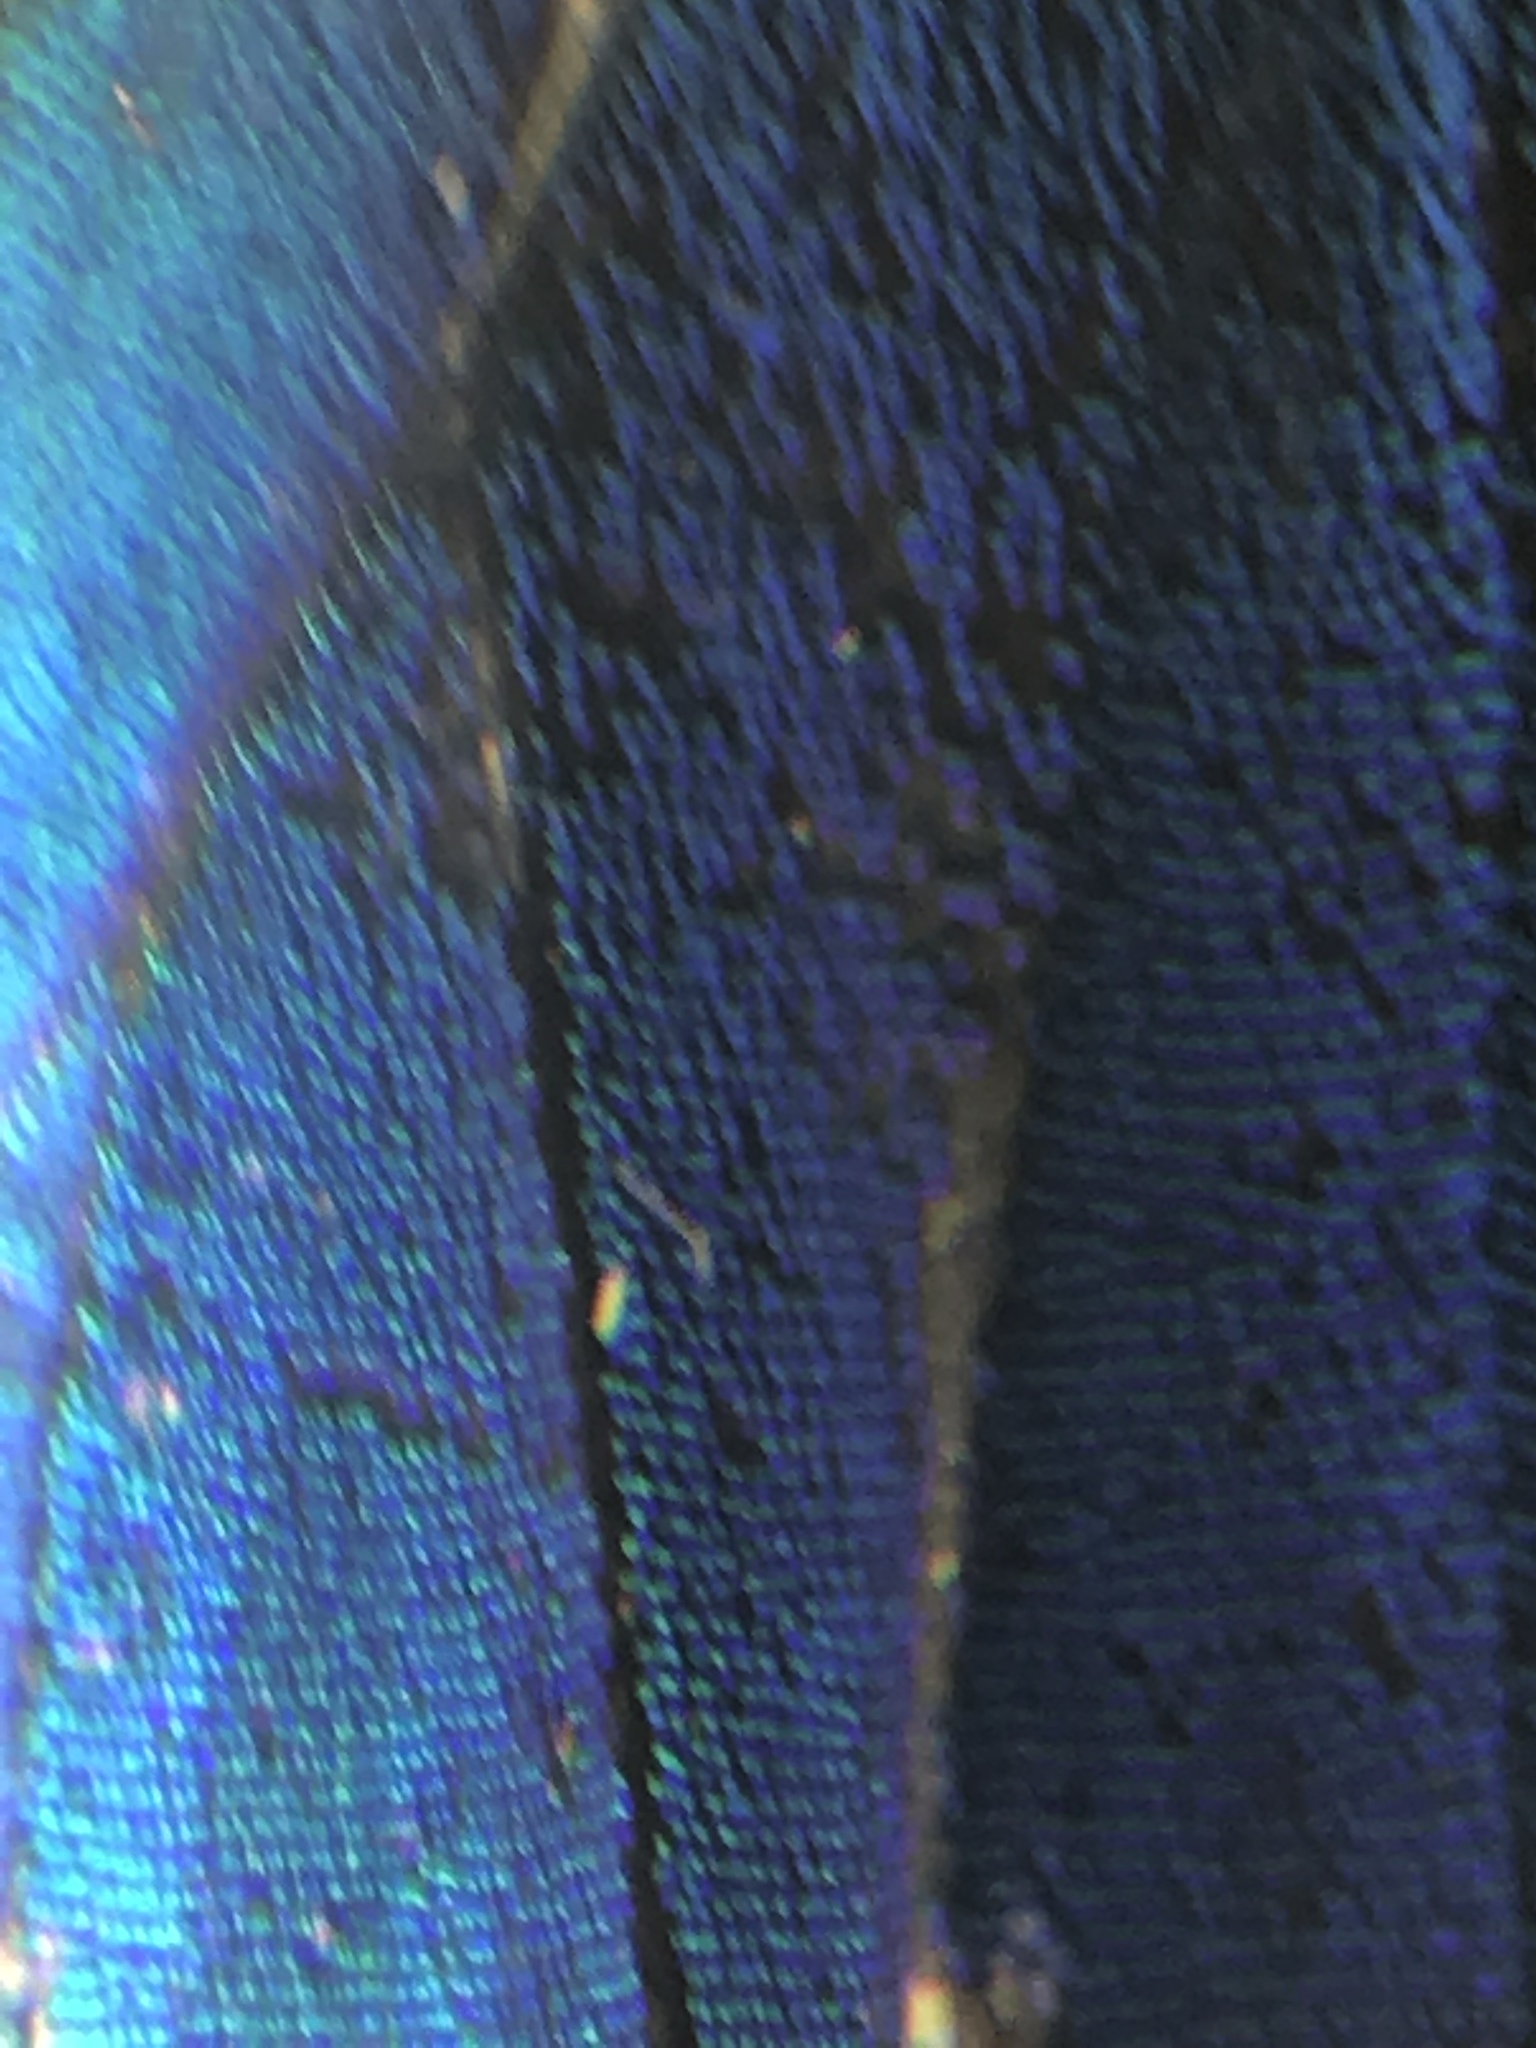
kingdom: Animalia
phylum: Arthropoda
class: Insecta
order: Lepidoptera
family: Lycaenidae
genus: Parrhasius
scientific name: Parrhasius
